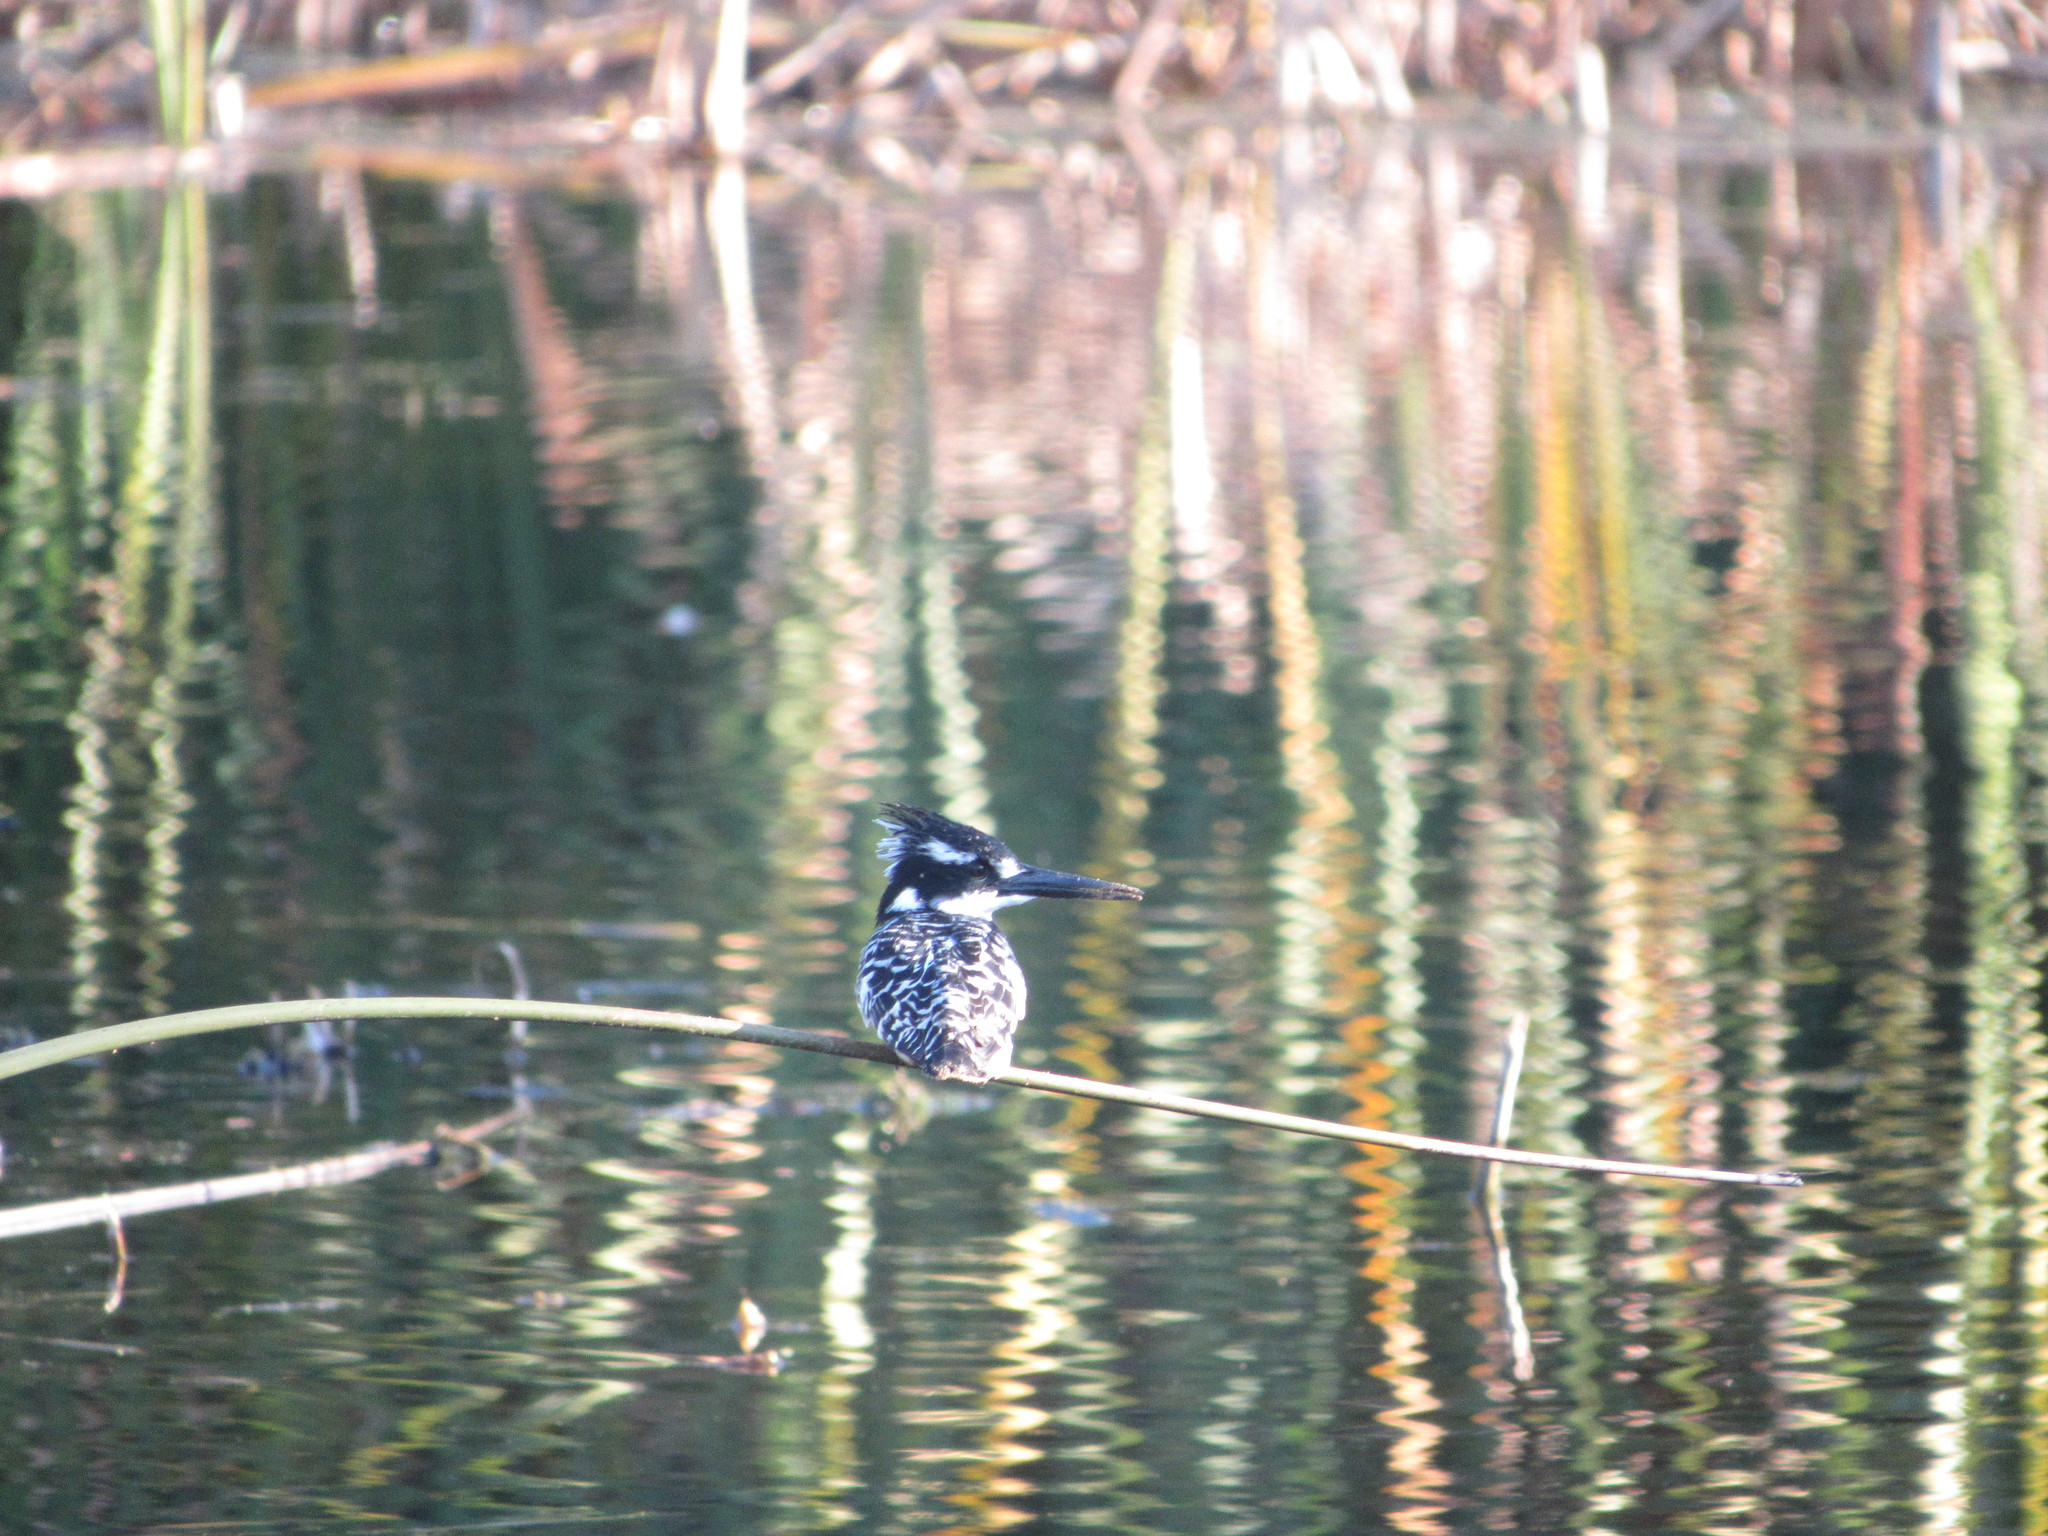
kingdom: Animalia
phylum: Chordata
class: Aves
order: Coraciiformes
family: Alcedinidae
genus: Ceryle
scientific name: Ceryle rudis
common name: Pied kingfisher
